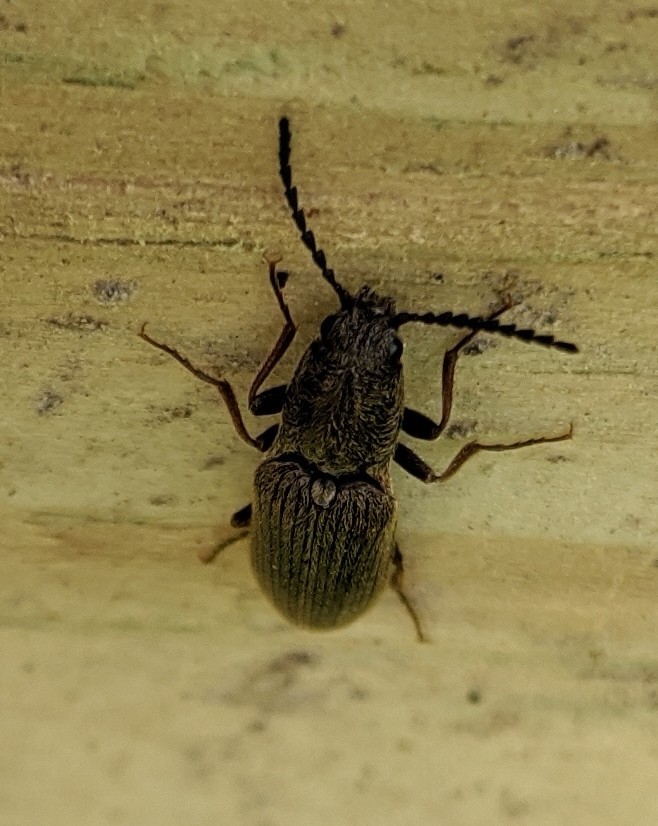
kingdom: Animalia
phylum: Arthropoda
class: Insecta
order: Coleoptera
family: Elateridae
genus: Sylvanelater
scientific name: Sylvanelater cylindriformis
